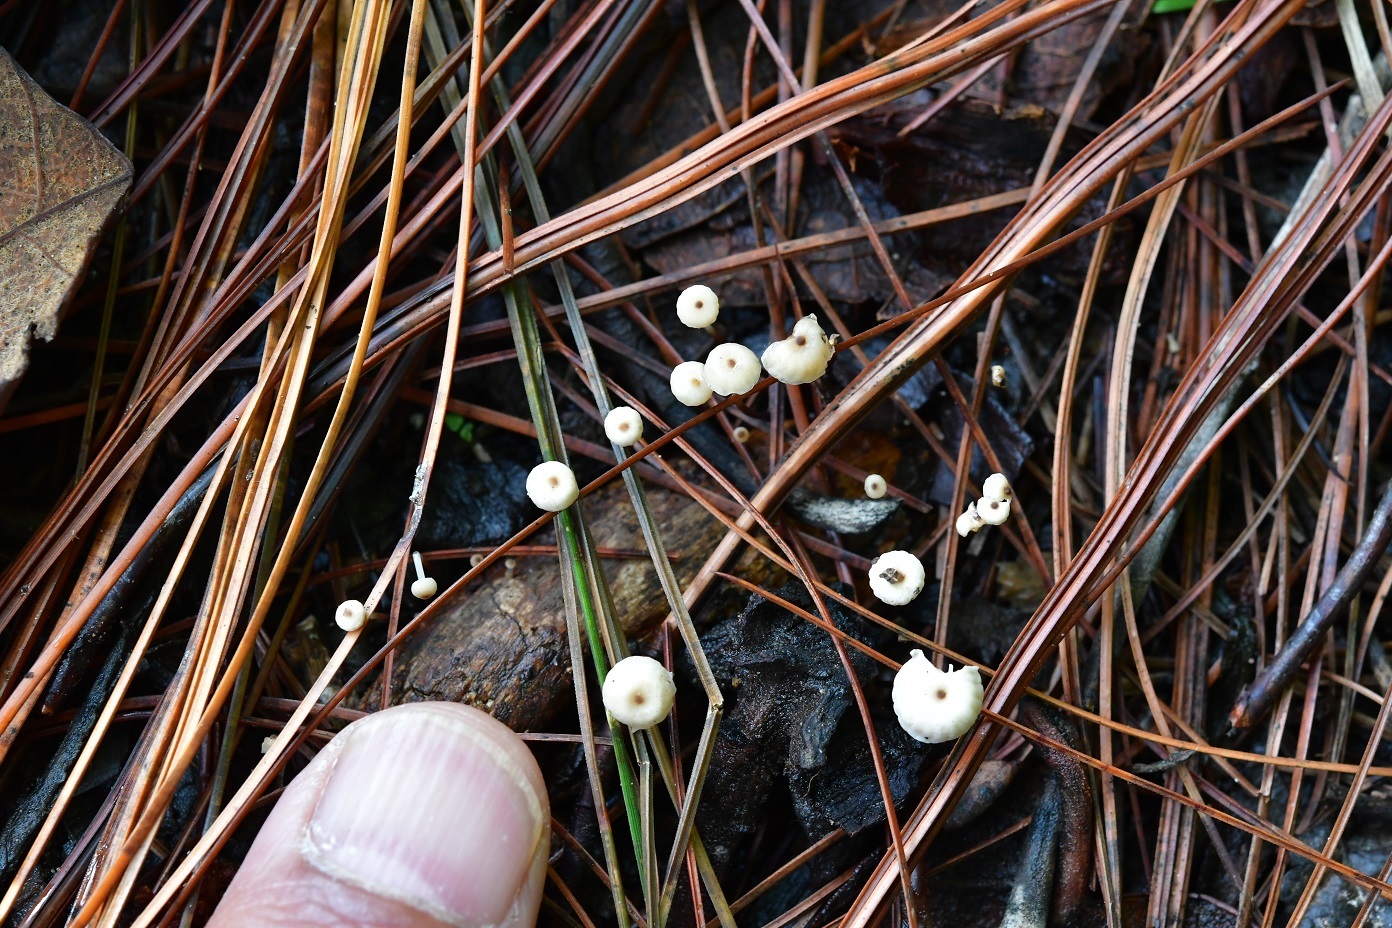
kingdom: Fungi
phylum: Basidiomycota
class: Agaricomycetes
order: Agaricales
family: Marasmiaceae
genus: Marasmius
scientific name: Marasmius rotula
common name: Collared parachute
